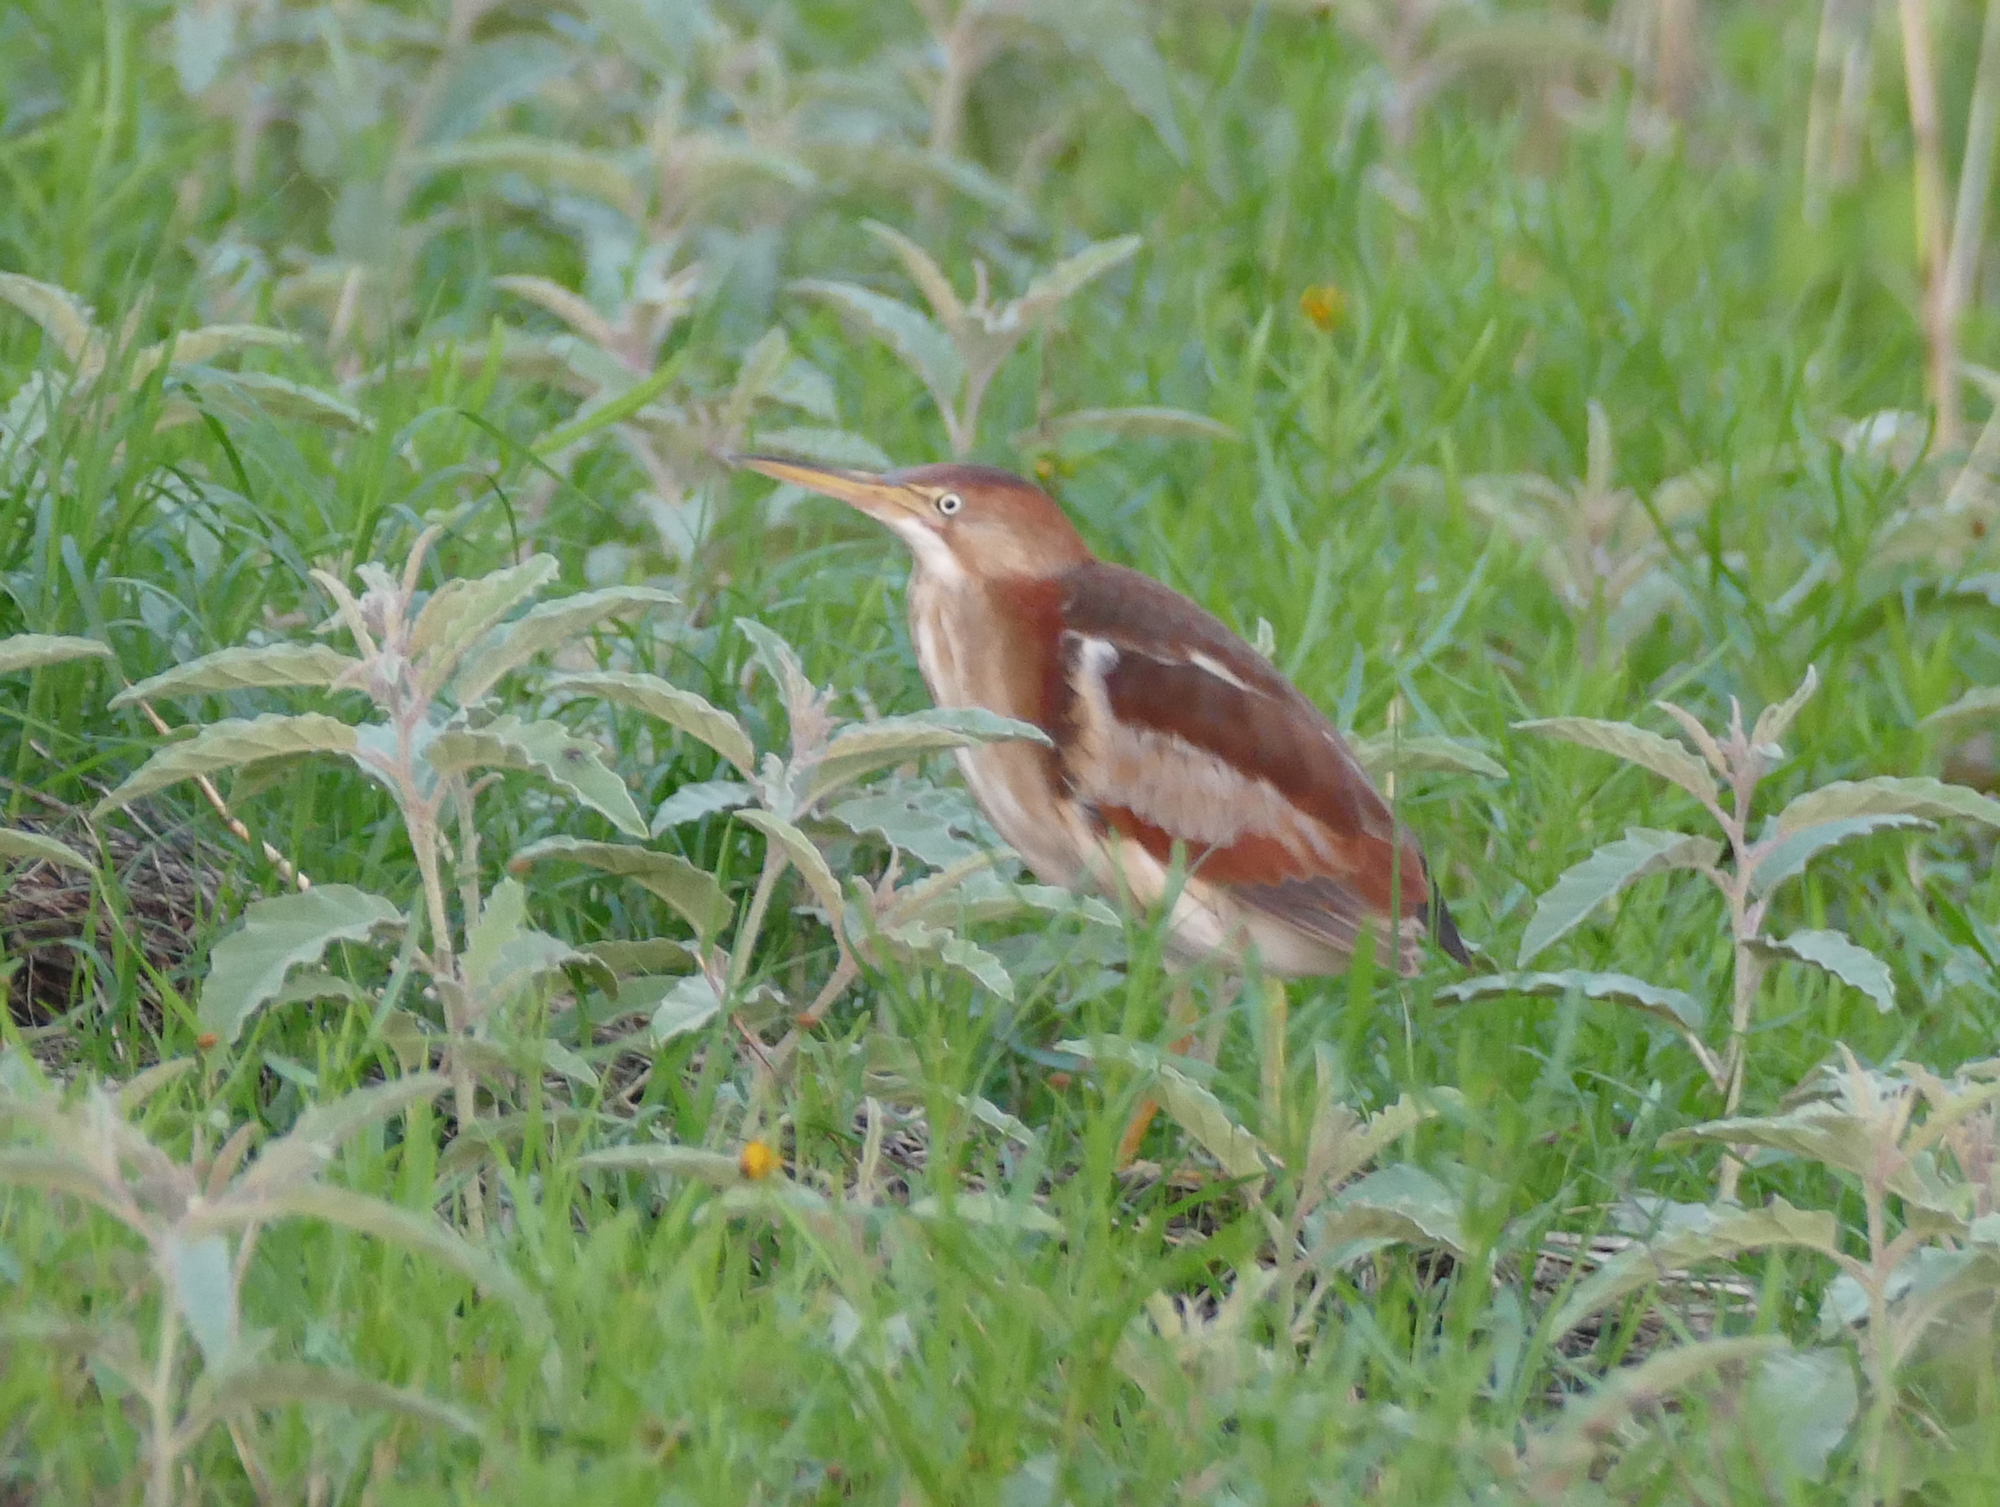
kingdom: Animalia
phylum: Chordata
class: Aves
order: Pelecaniformes
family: Ardeidae
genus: Ixobrychus
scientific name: Ixobrychus exilis
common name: Least bittern
